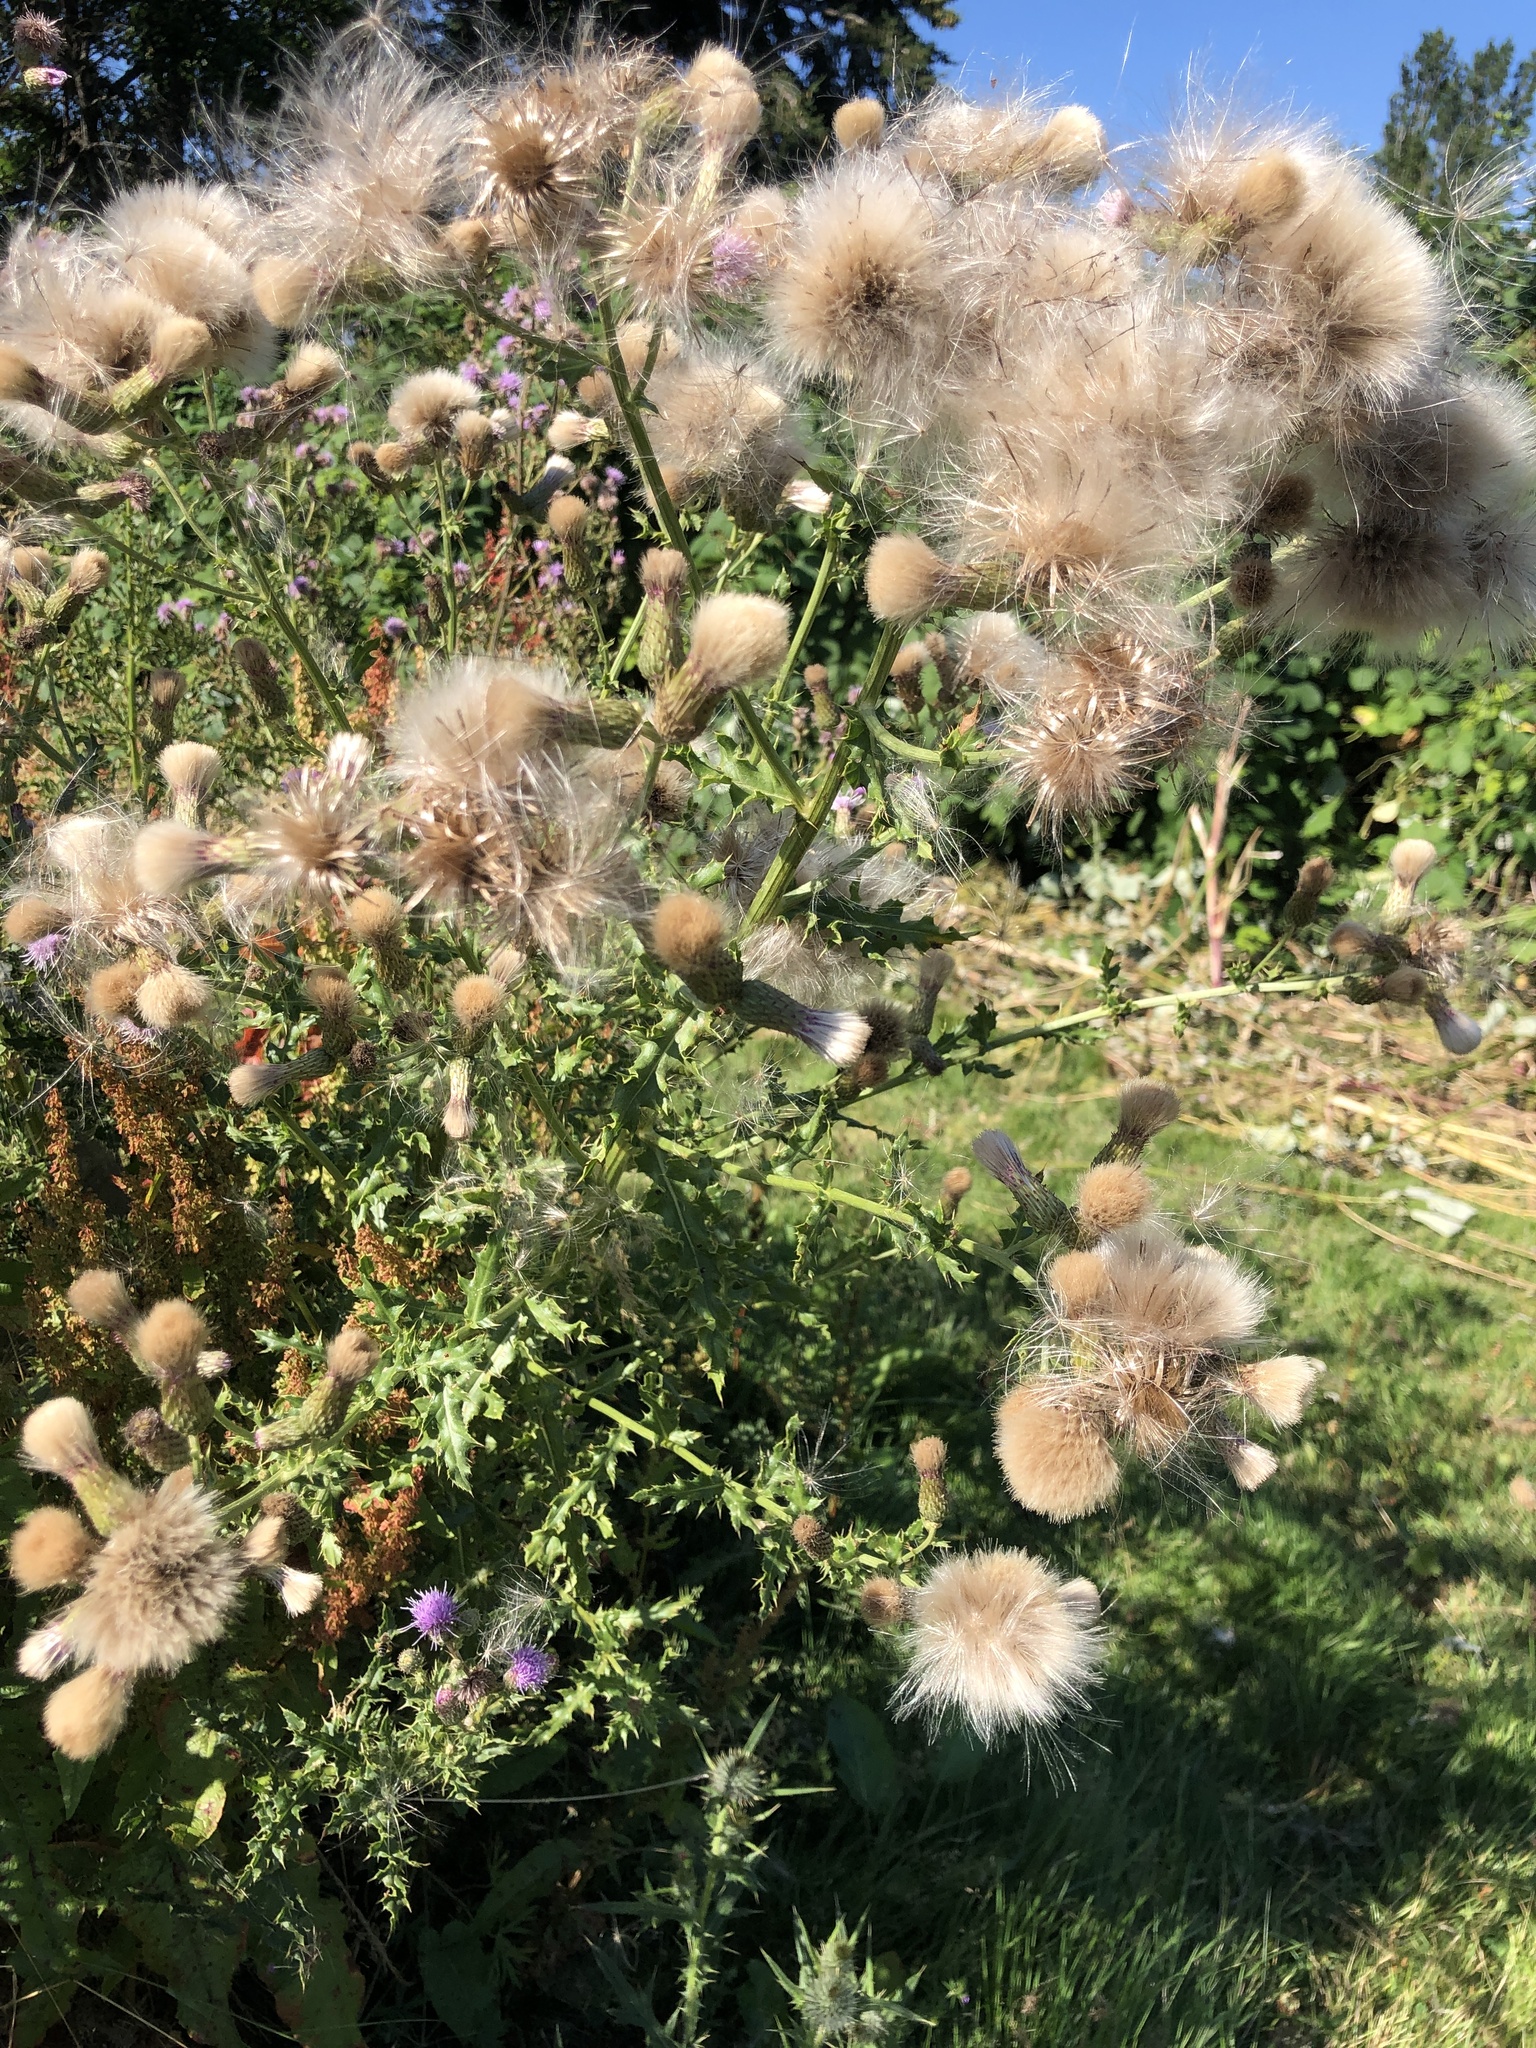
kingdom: Plantae
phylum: Tracheophyta
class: Magnoliopsida
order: Asterales
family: Asteraceae
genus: Cirsium
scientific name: Cirsium arvense
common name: Creeping thistle
